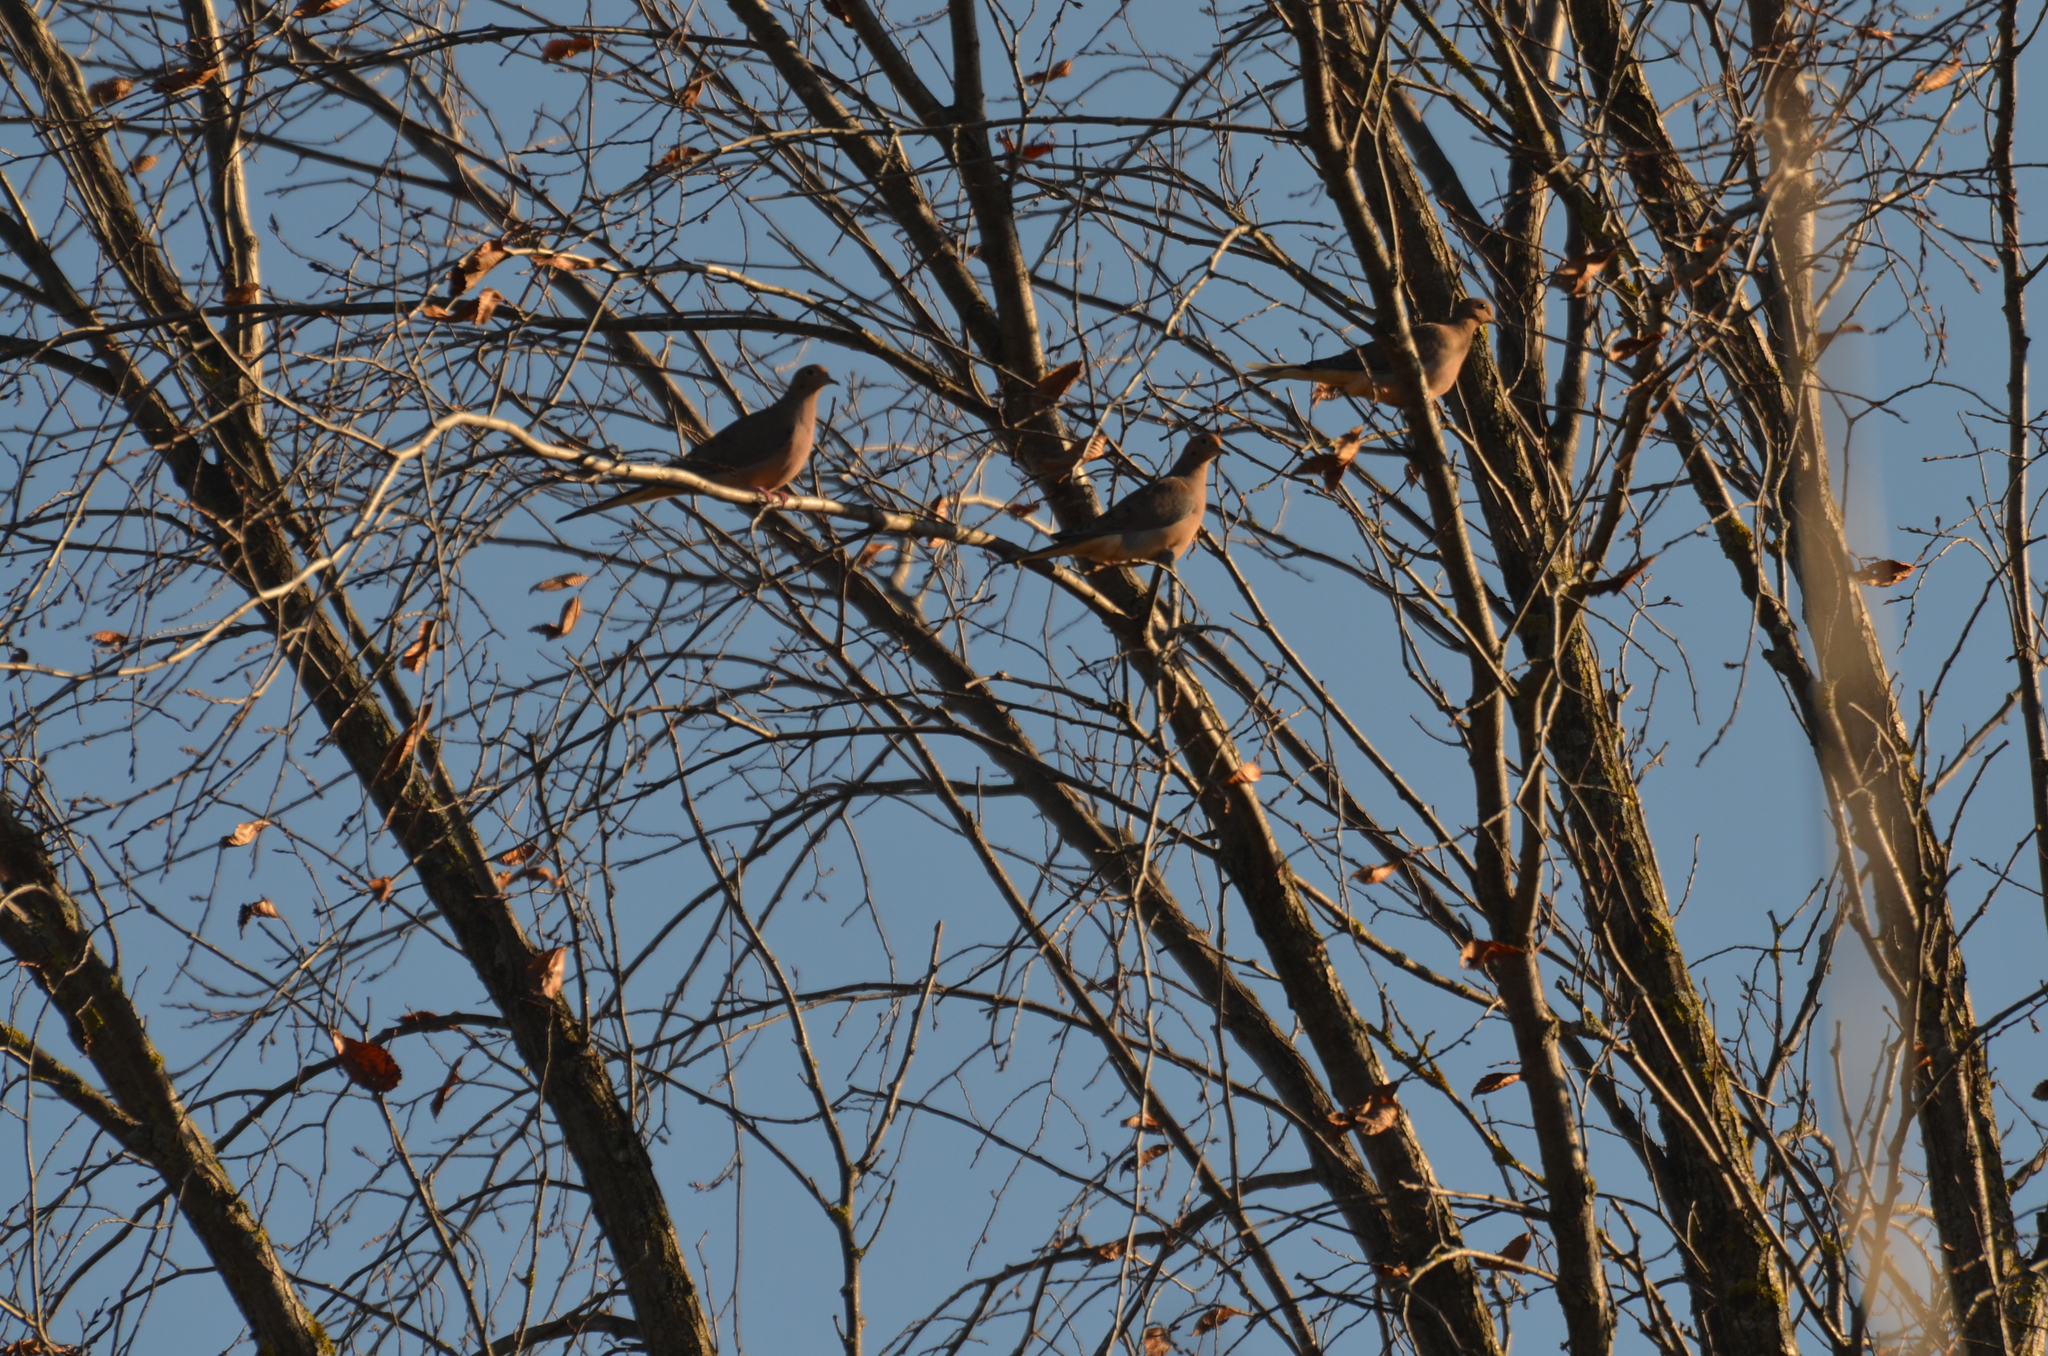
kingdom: Animalia
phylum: Chordata
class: Aves
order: Columbiformes
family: Columbidae
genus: Zenaida
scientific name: Zenaida macroura
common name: Mourning dove
